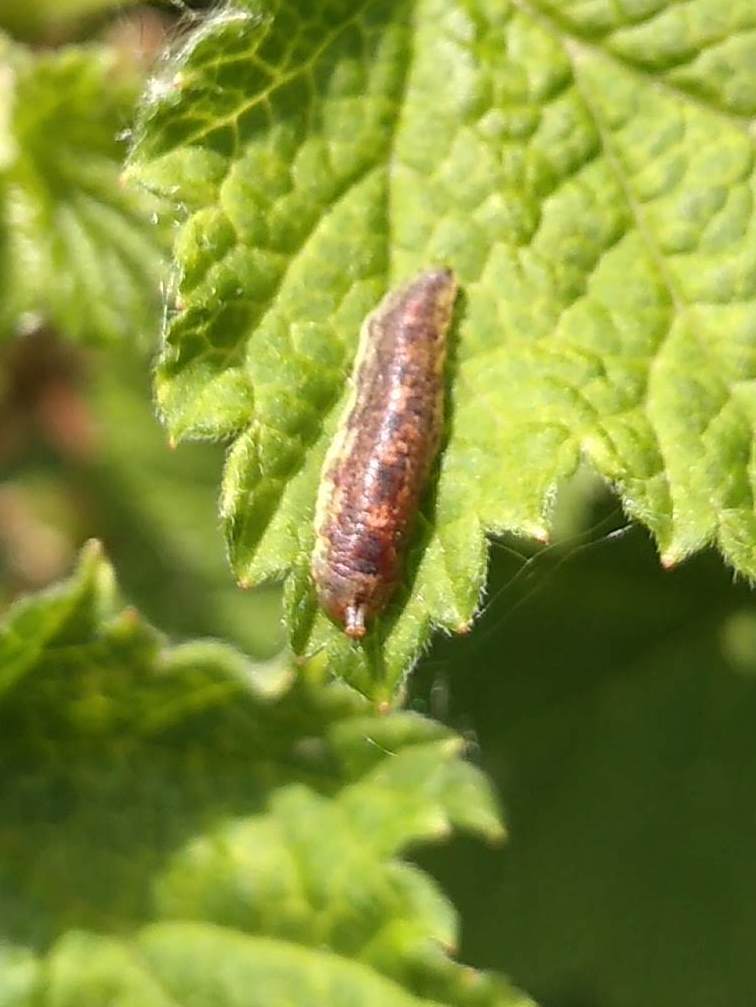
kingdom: Animalia
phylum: Arthropoda
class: Insecta
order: Diptera
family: Syrphidae
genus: Melangyna
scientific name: Melangyna lasiophthalma
